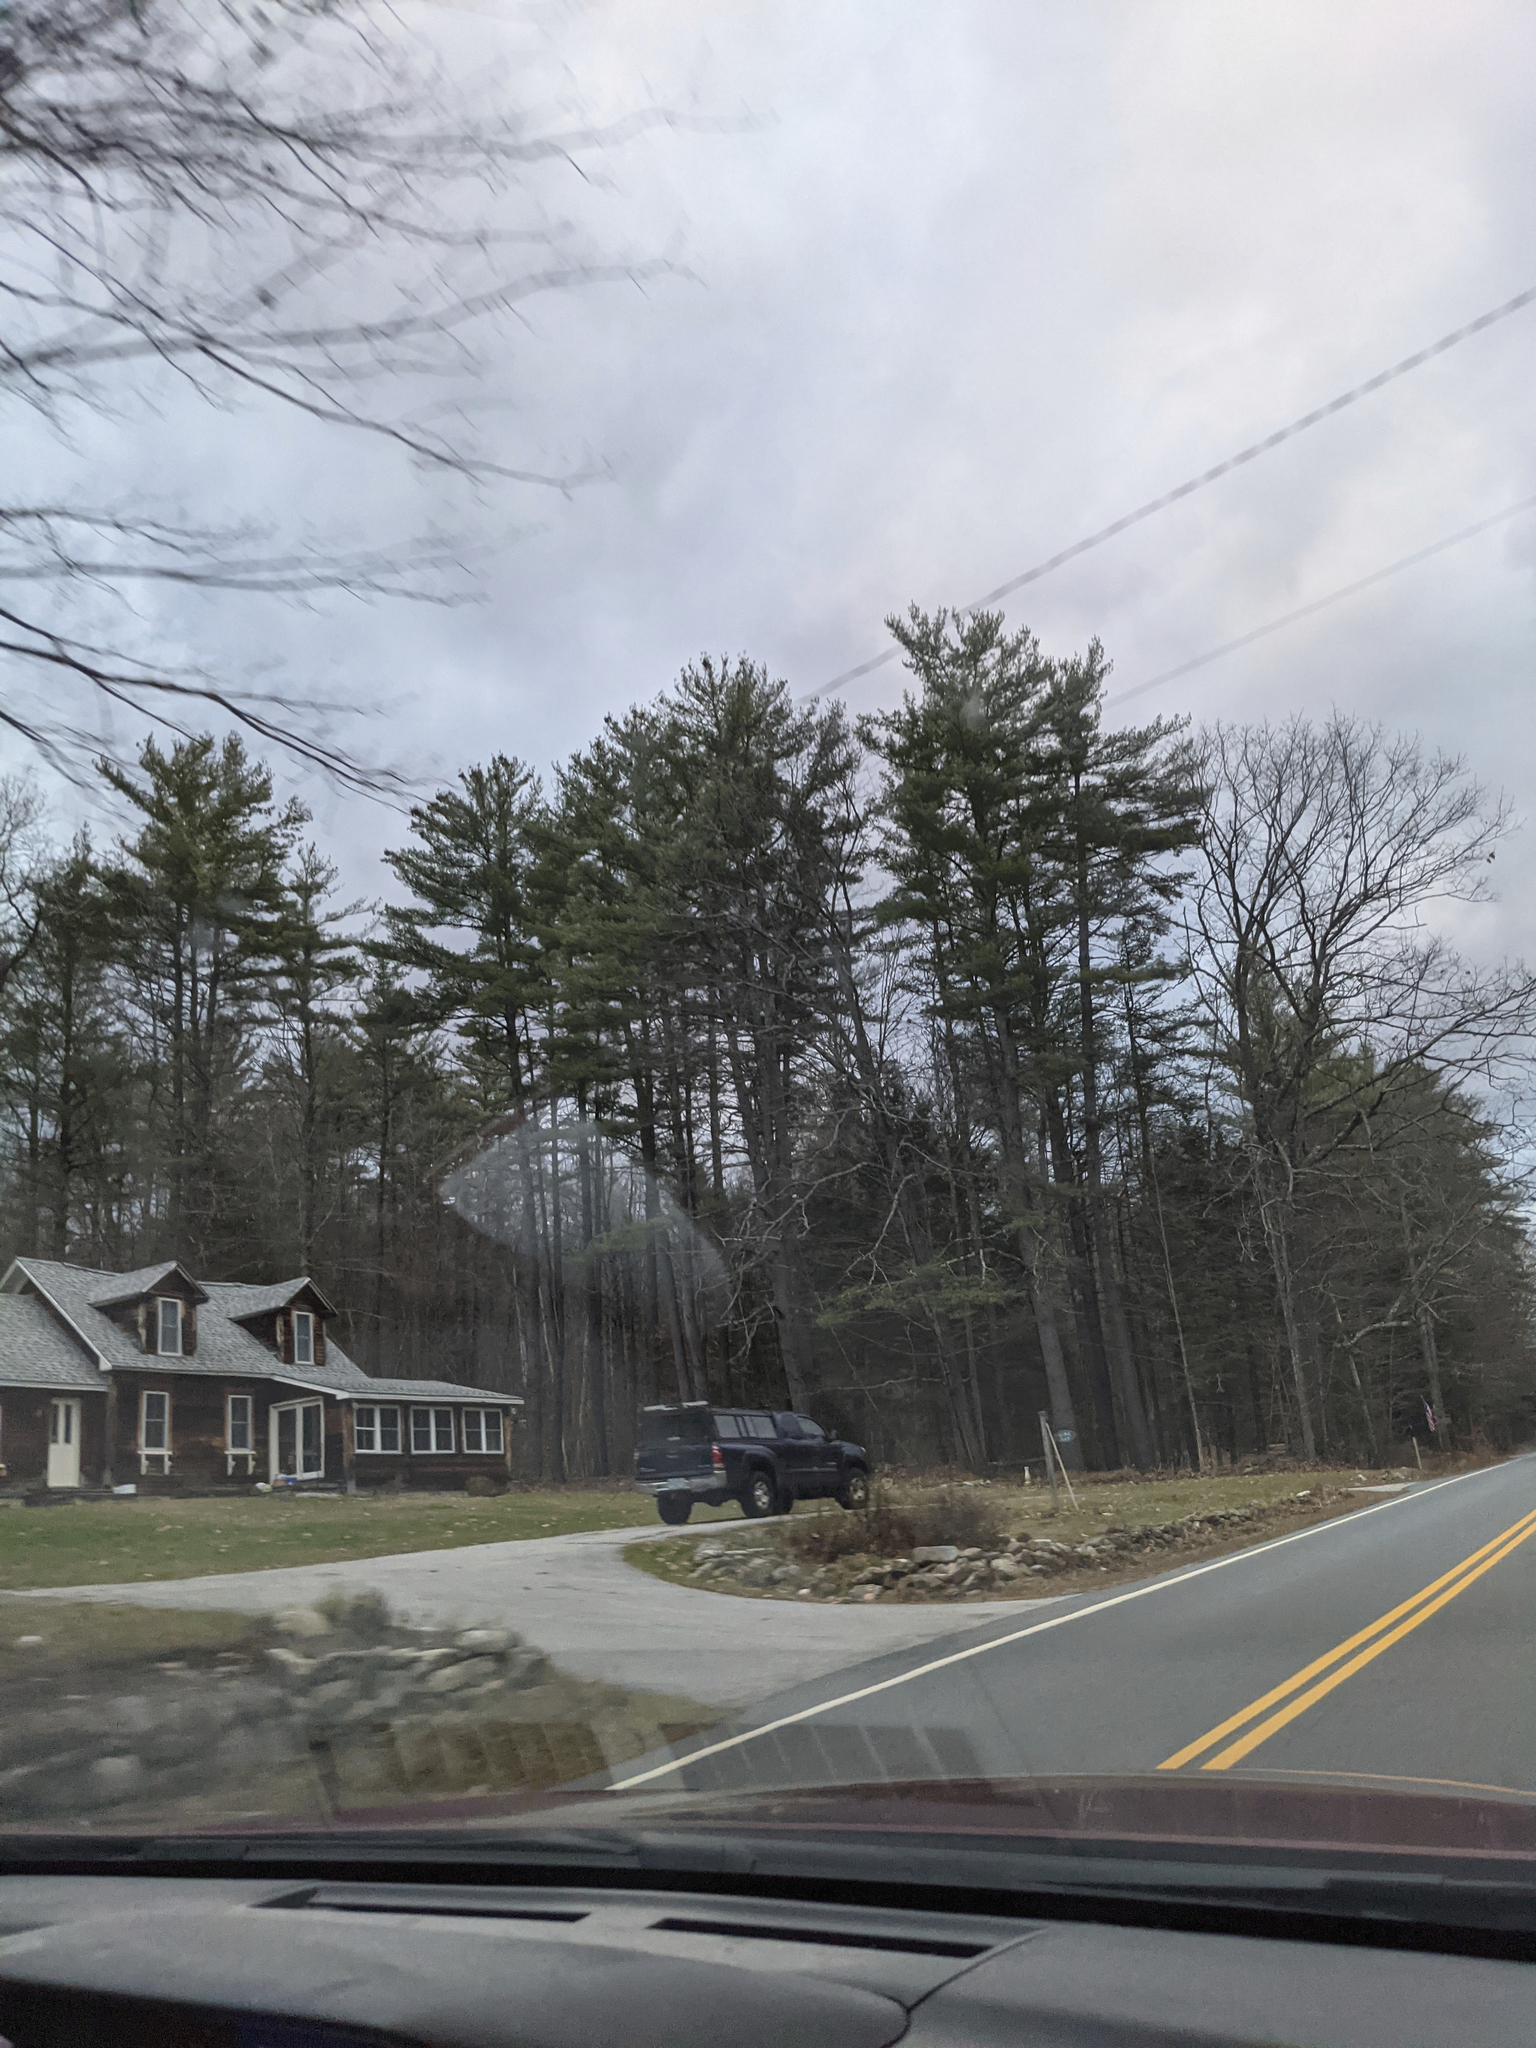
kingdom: Plantae
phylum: Tracheophyta
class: Pinopsida
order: Pinales
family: Pinaceae
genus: Pinus
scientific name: Pinus strobus
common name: Weymouth pine
